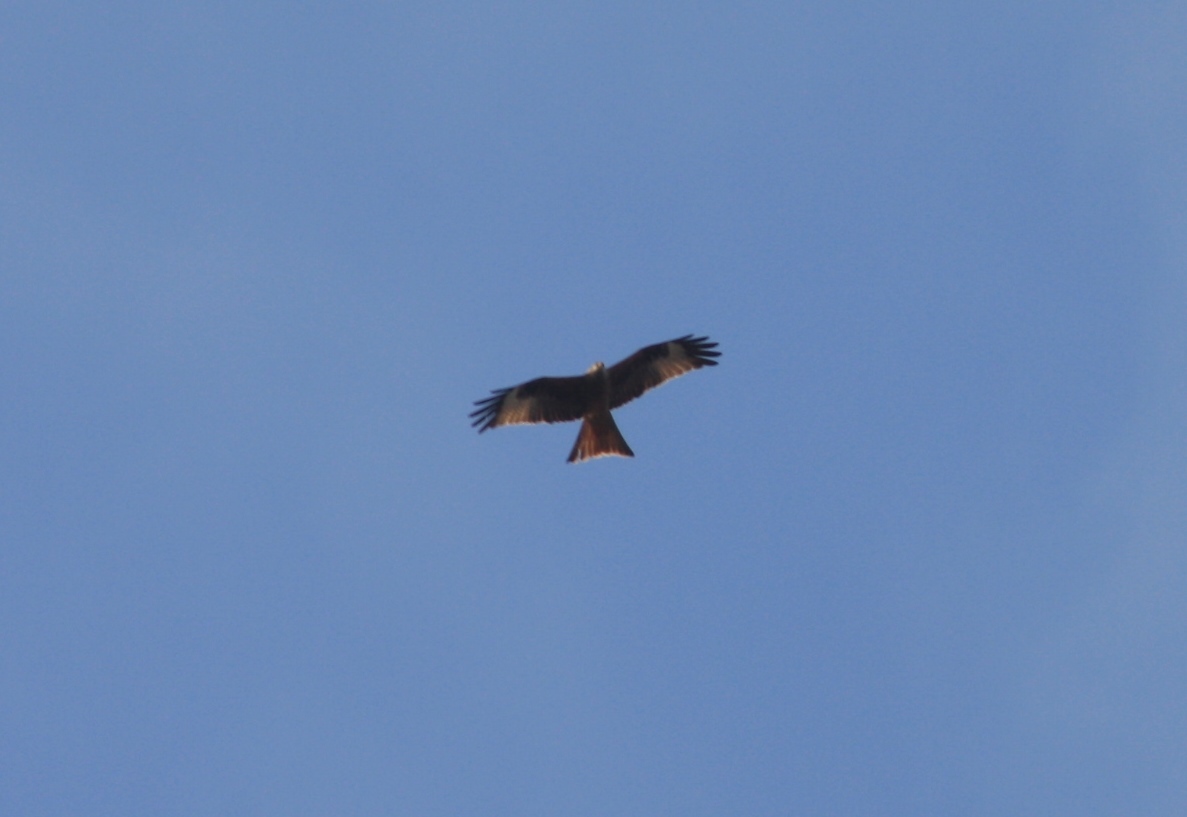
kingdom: Animalia
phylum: Chordata
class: Aves
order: Accipitriformes
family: Accipitridae
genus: Milvus
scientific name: Milvus milvus
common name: Red kite
